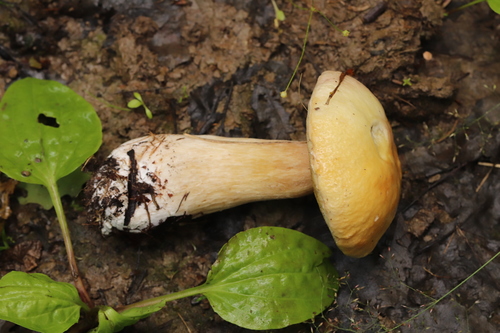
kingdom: Fungi
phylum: Basidiomycota
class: Agaricomycetes
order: Boletales
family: Boletaceae
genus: Boletus
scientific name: Boletus edulis
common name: Cep
